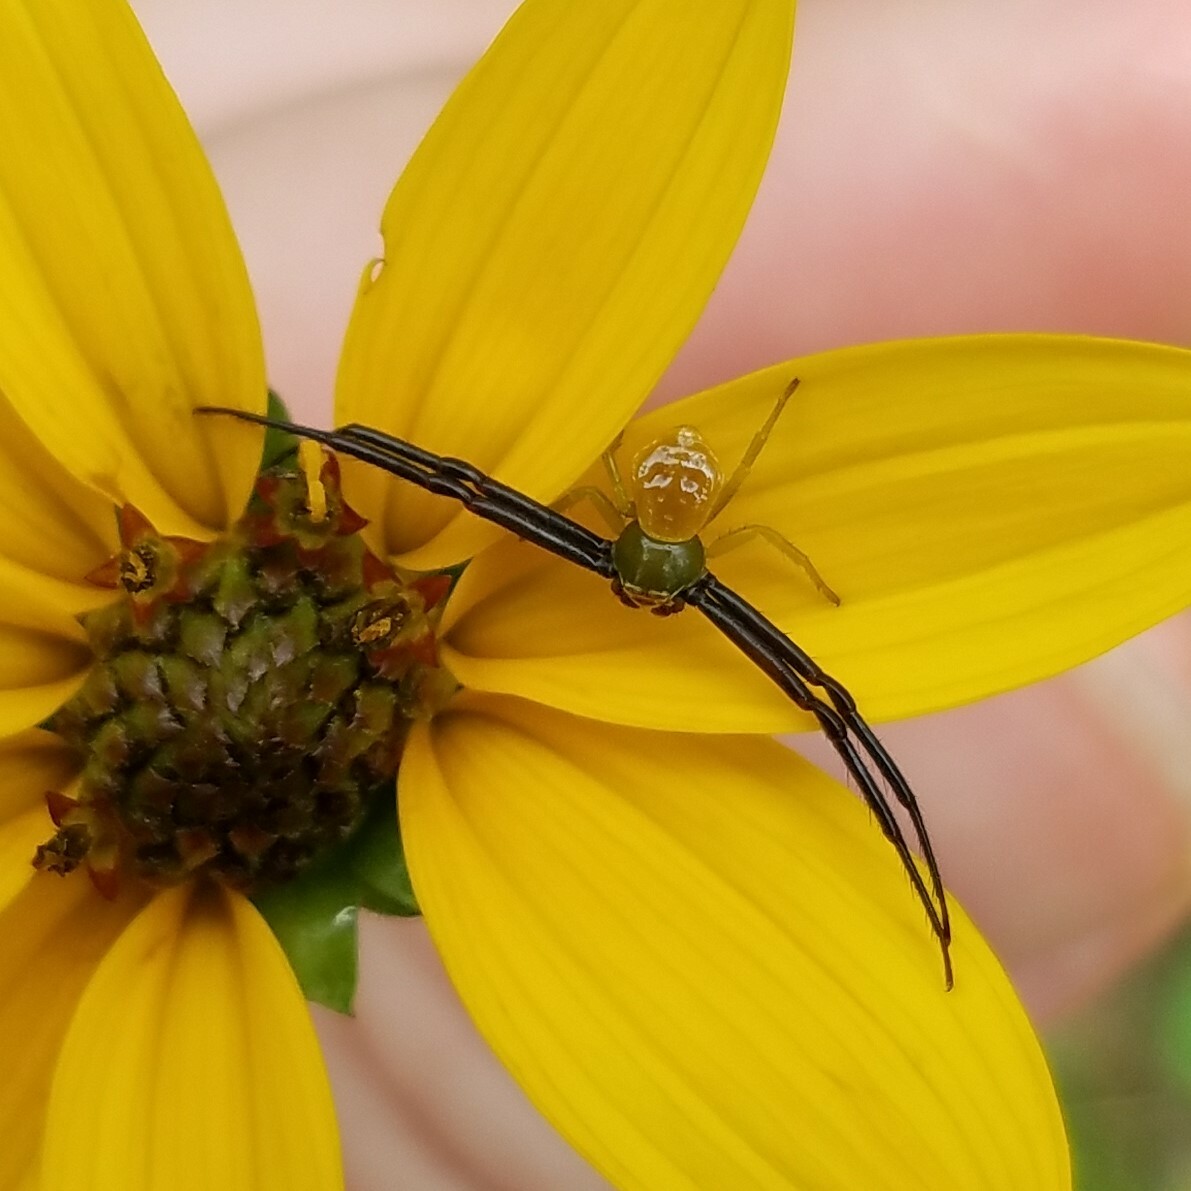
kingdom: Animalia
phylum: Arthropoda
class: Arachnida
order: Araneae
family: Thomisidae
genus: Misumenoides
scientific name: Misumenoides formosipes
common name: White-banded crab spider
